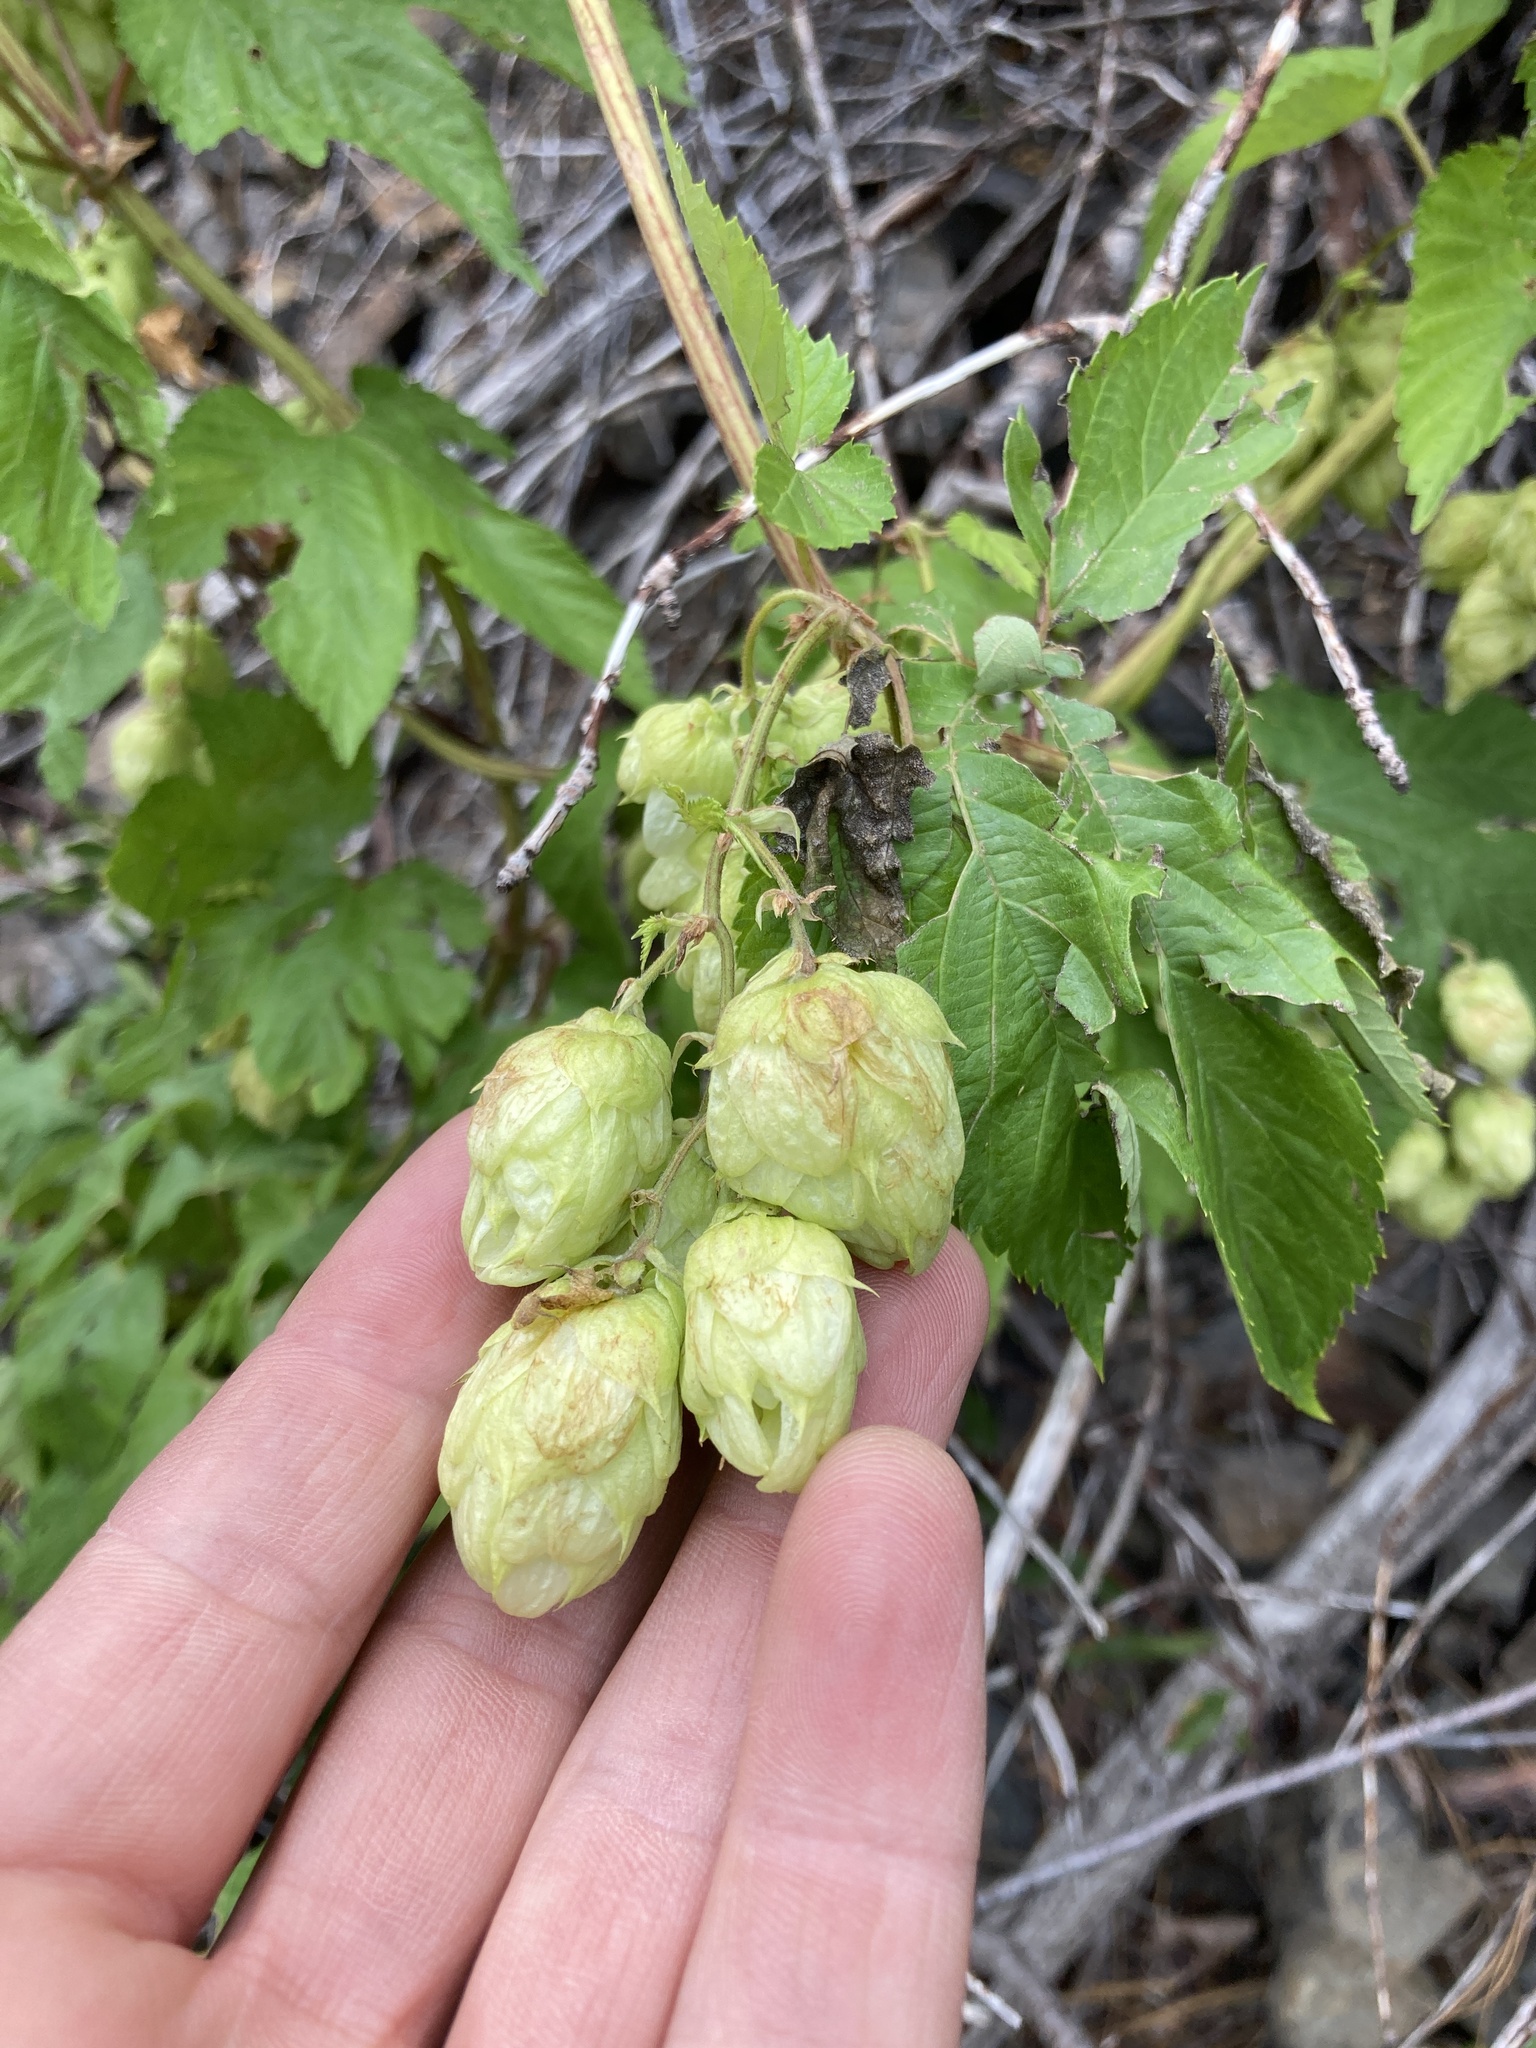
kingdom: Plantae
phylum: Tracheophyta
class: Magnoliopsida
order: Rosales
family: Cannabaceae
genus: Humulus
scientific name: Humulus lupulus
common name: Hop
